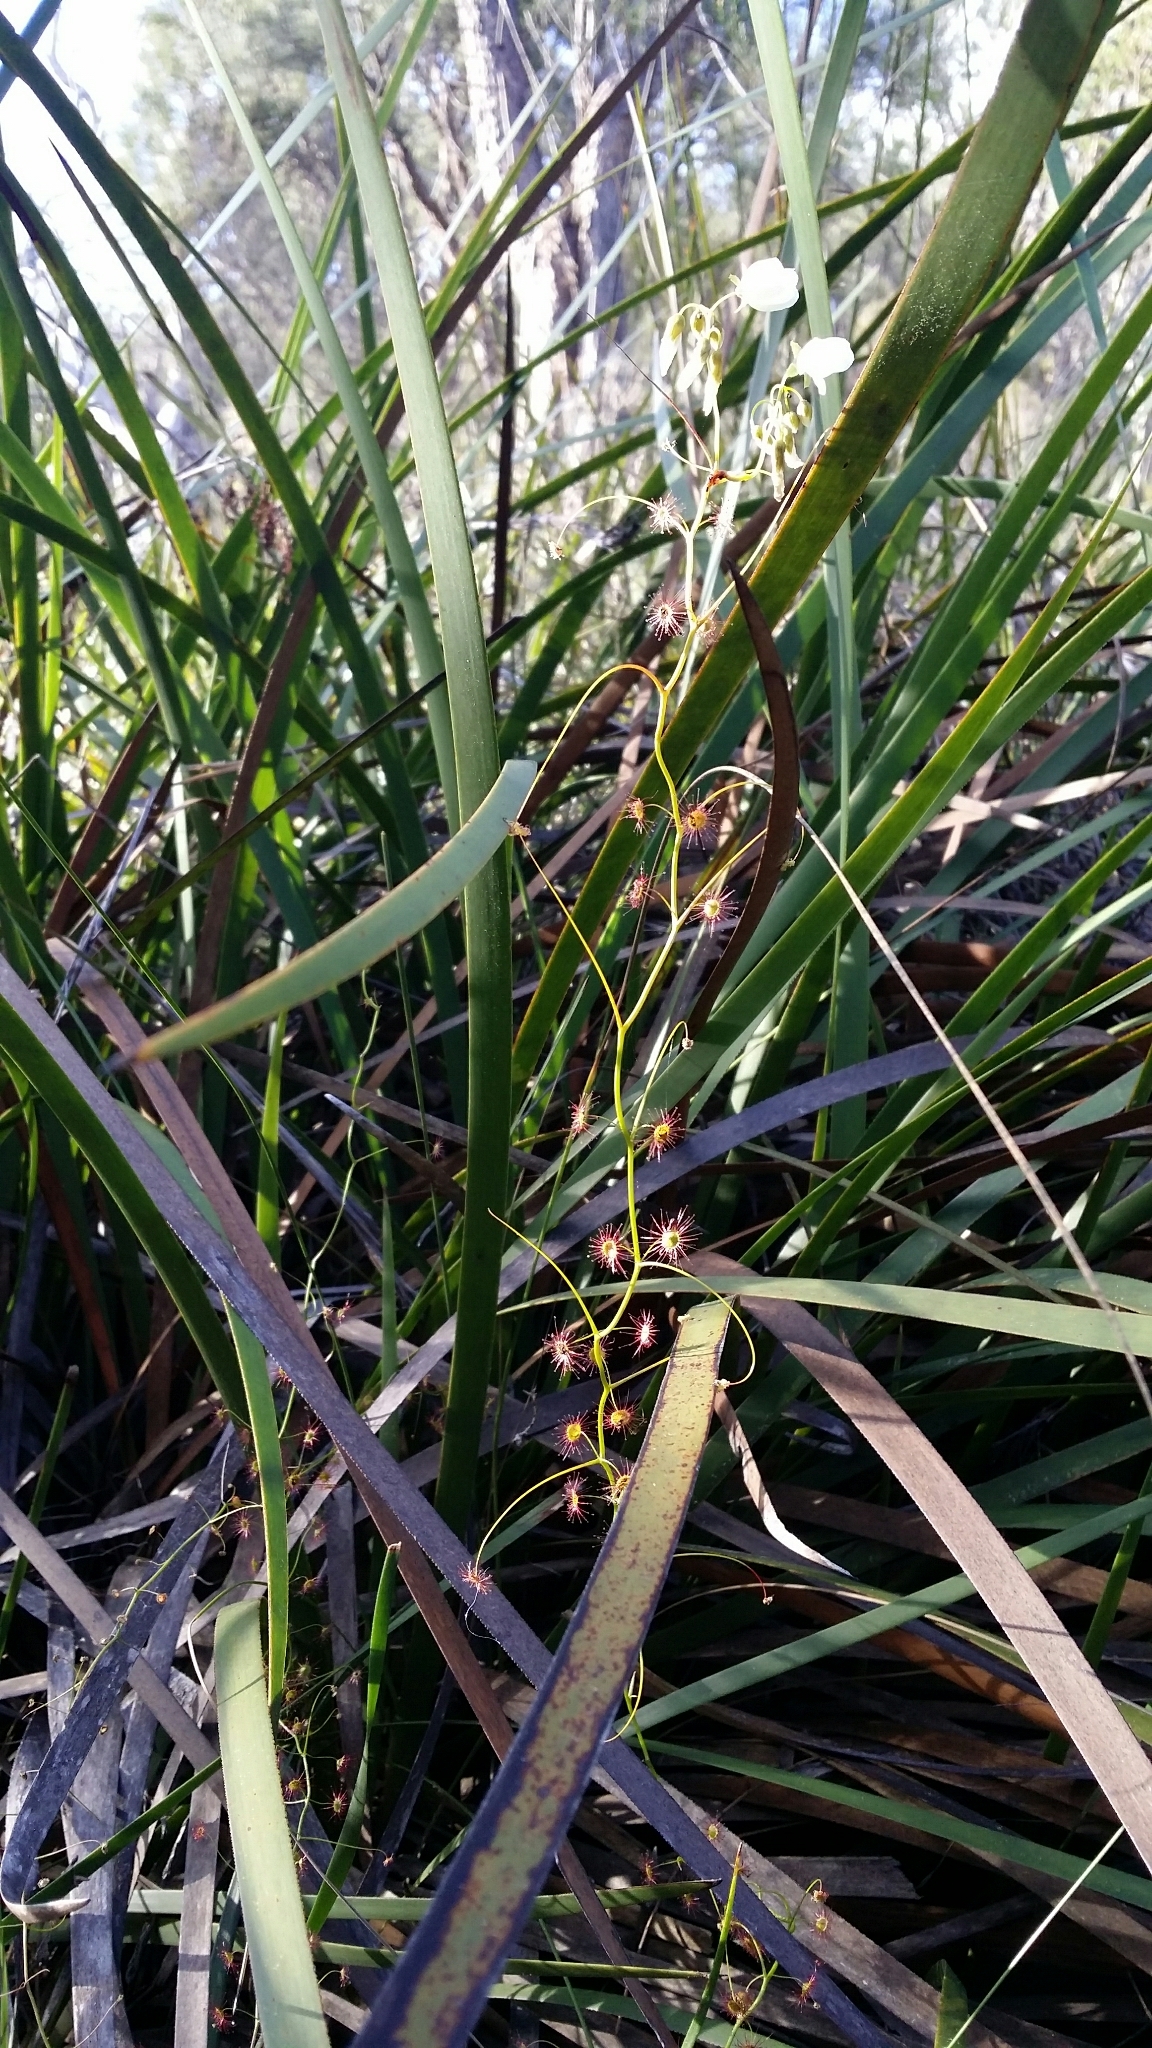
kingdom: Plantae
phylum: Tracheophyta
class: Magnoliopsida
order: Caryophyllales
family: Droseraceae
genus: Drosera
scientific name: Drosera pallida
